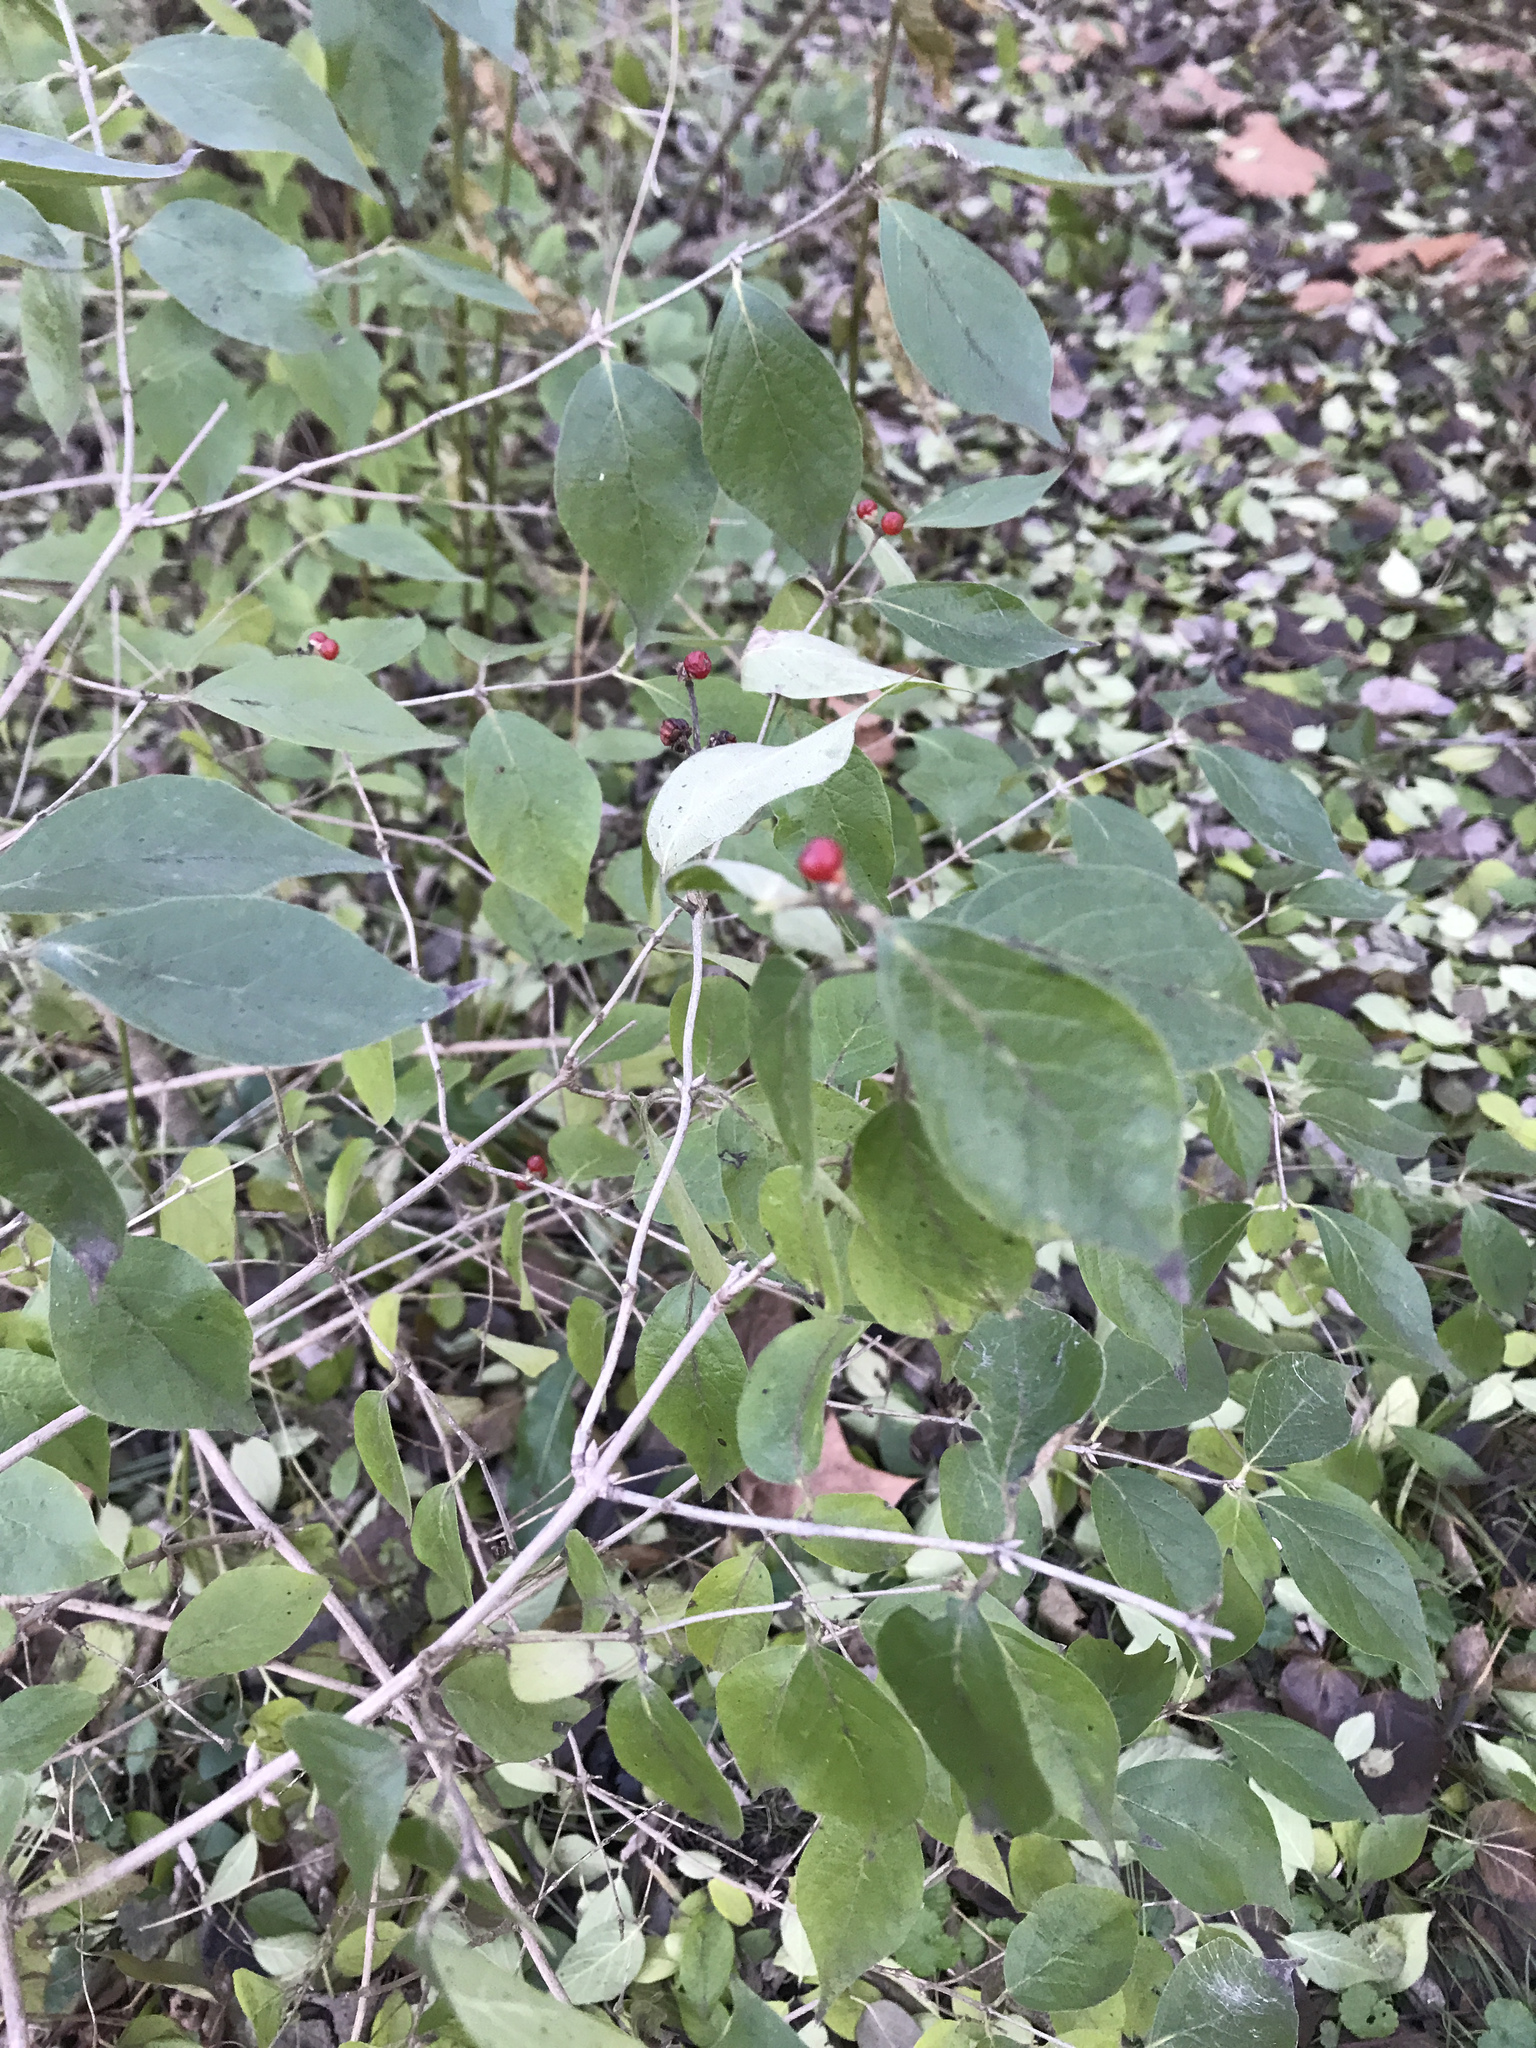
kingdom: Plantae
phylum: Tracheophyta
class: Magnoliopsida
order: Dipsacales
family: Caprifoliaceae
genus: Lonicera
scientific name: Lonicera maackii
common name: Amur honeysuckle
